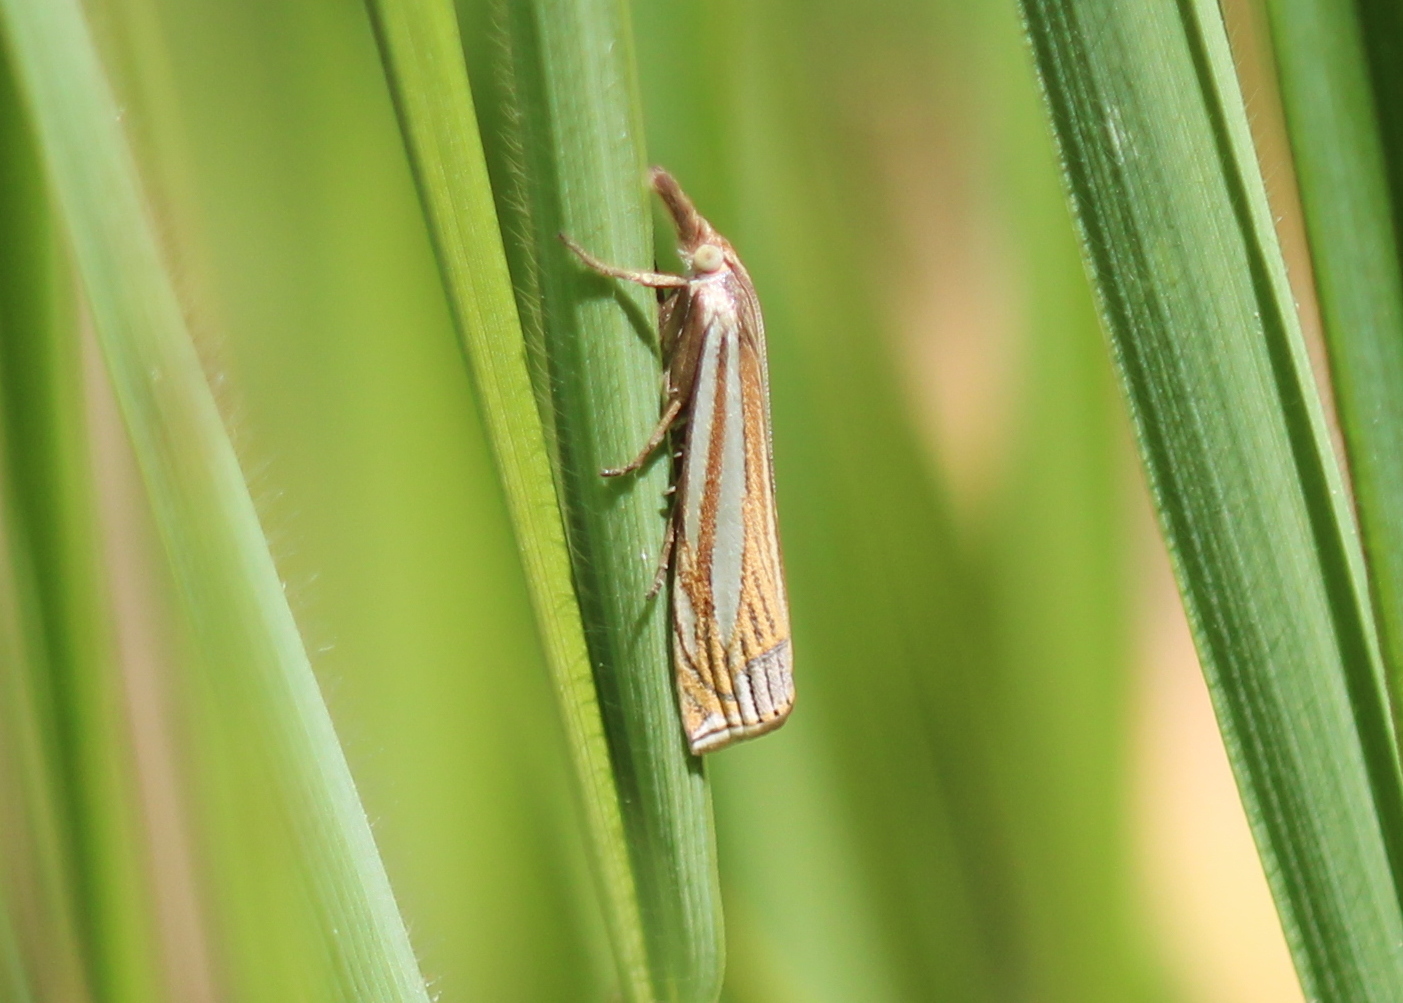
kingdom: Animalia
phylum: Arthropoda
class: Insecta
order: Lepidoptera
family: Crambidae
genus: Crambus
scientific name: Crambus laqueatellus
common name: Eastern grass-veneer
